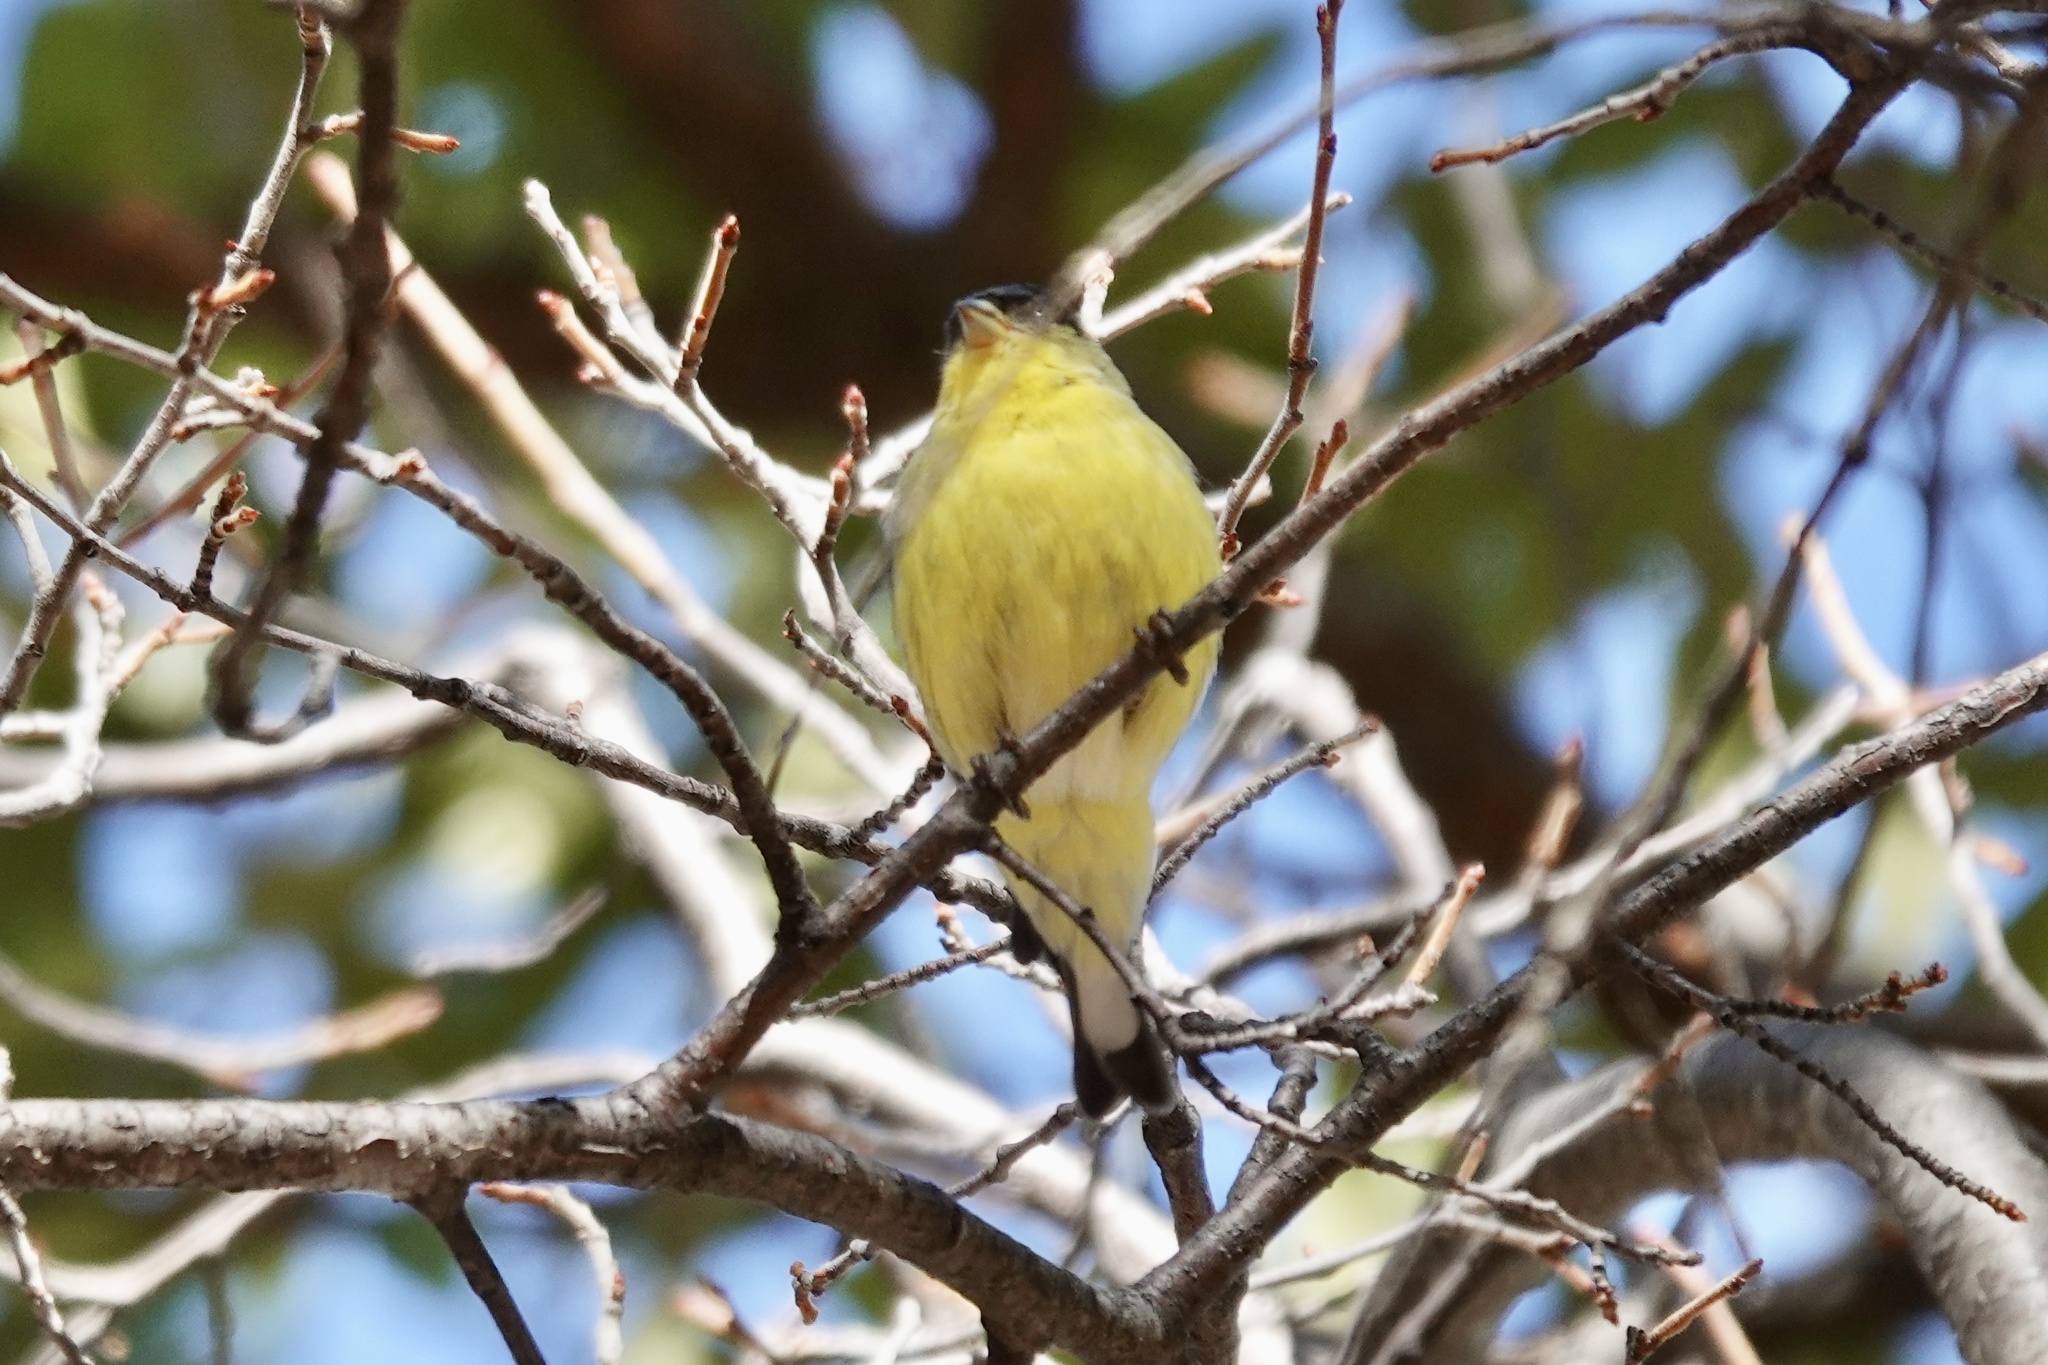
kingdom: Animalia
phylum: Chordata
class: Aves
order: Passeriformes
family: Fringillidae
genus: Spinus
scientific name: Spinus psaltria
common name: Lesser goldfinch
